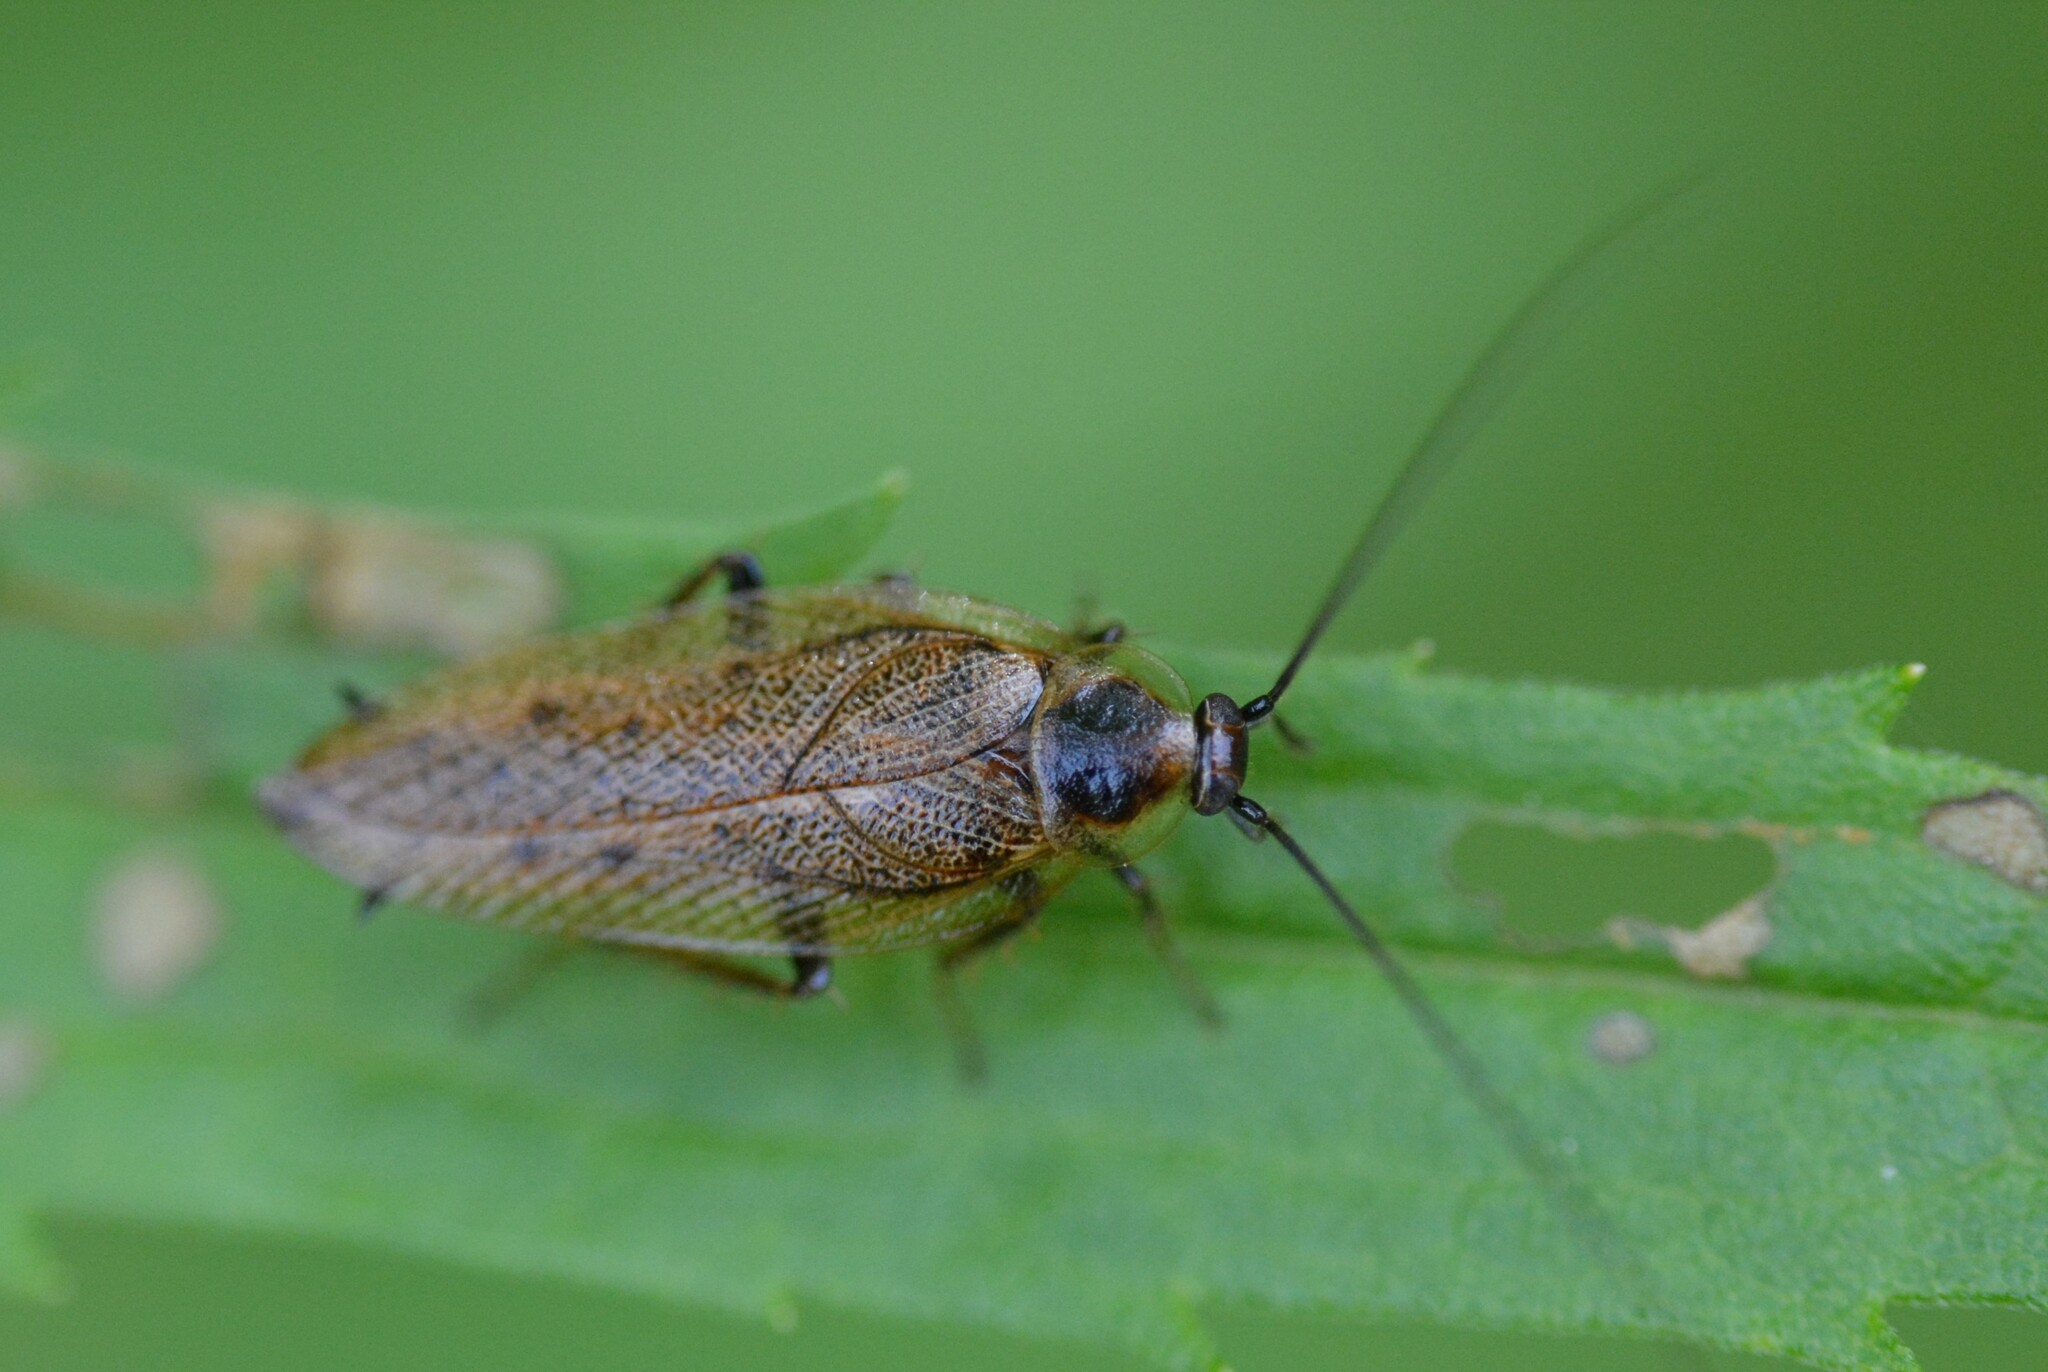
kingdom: Animalia
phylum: Arthropoda
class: Insecta
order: Blattodea
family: Ectobiidae
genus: Ectobius
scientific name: Ectobius lapponicus
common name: Dusky cockroach
